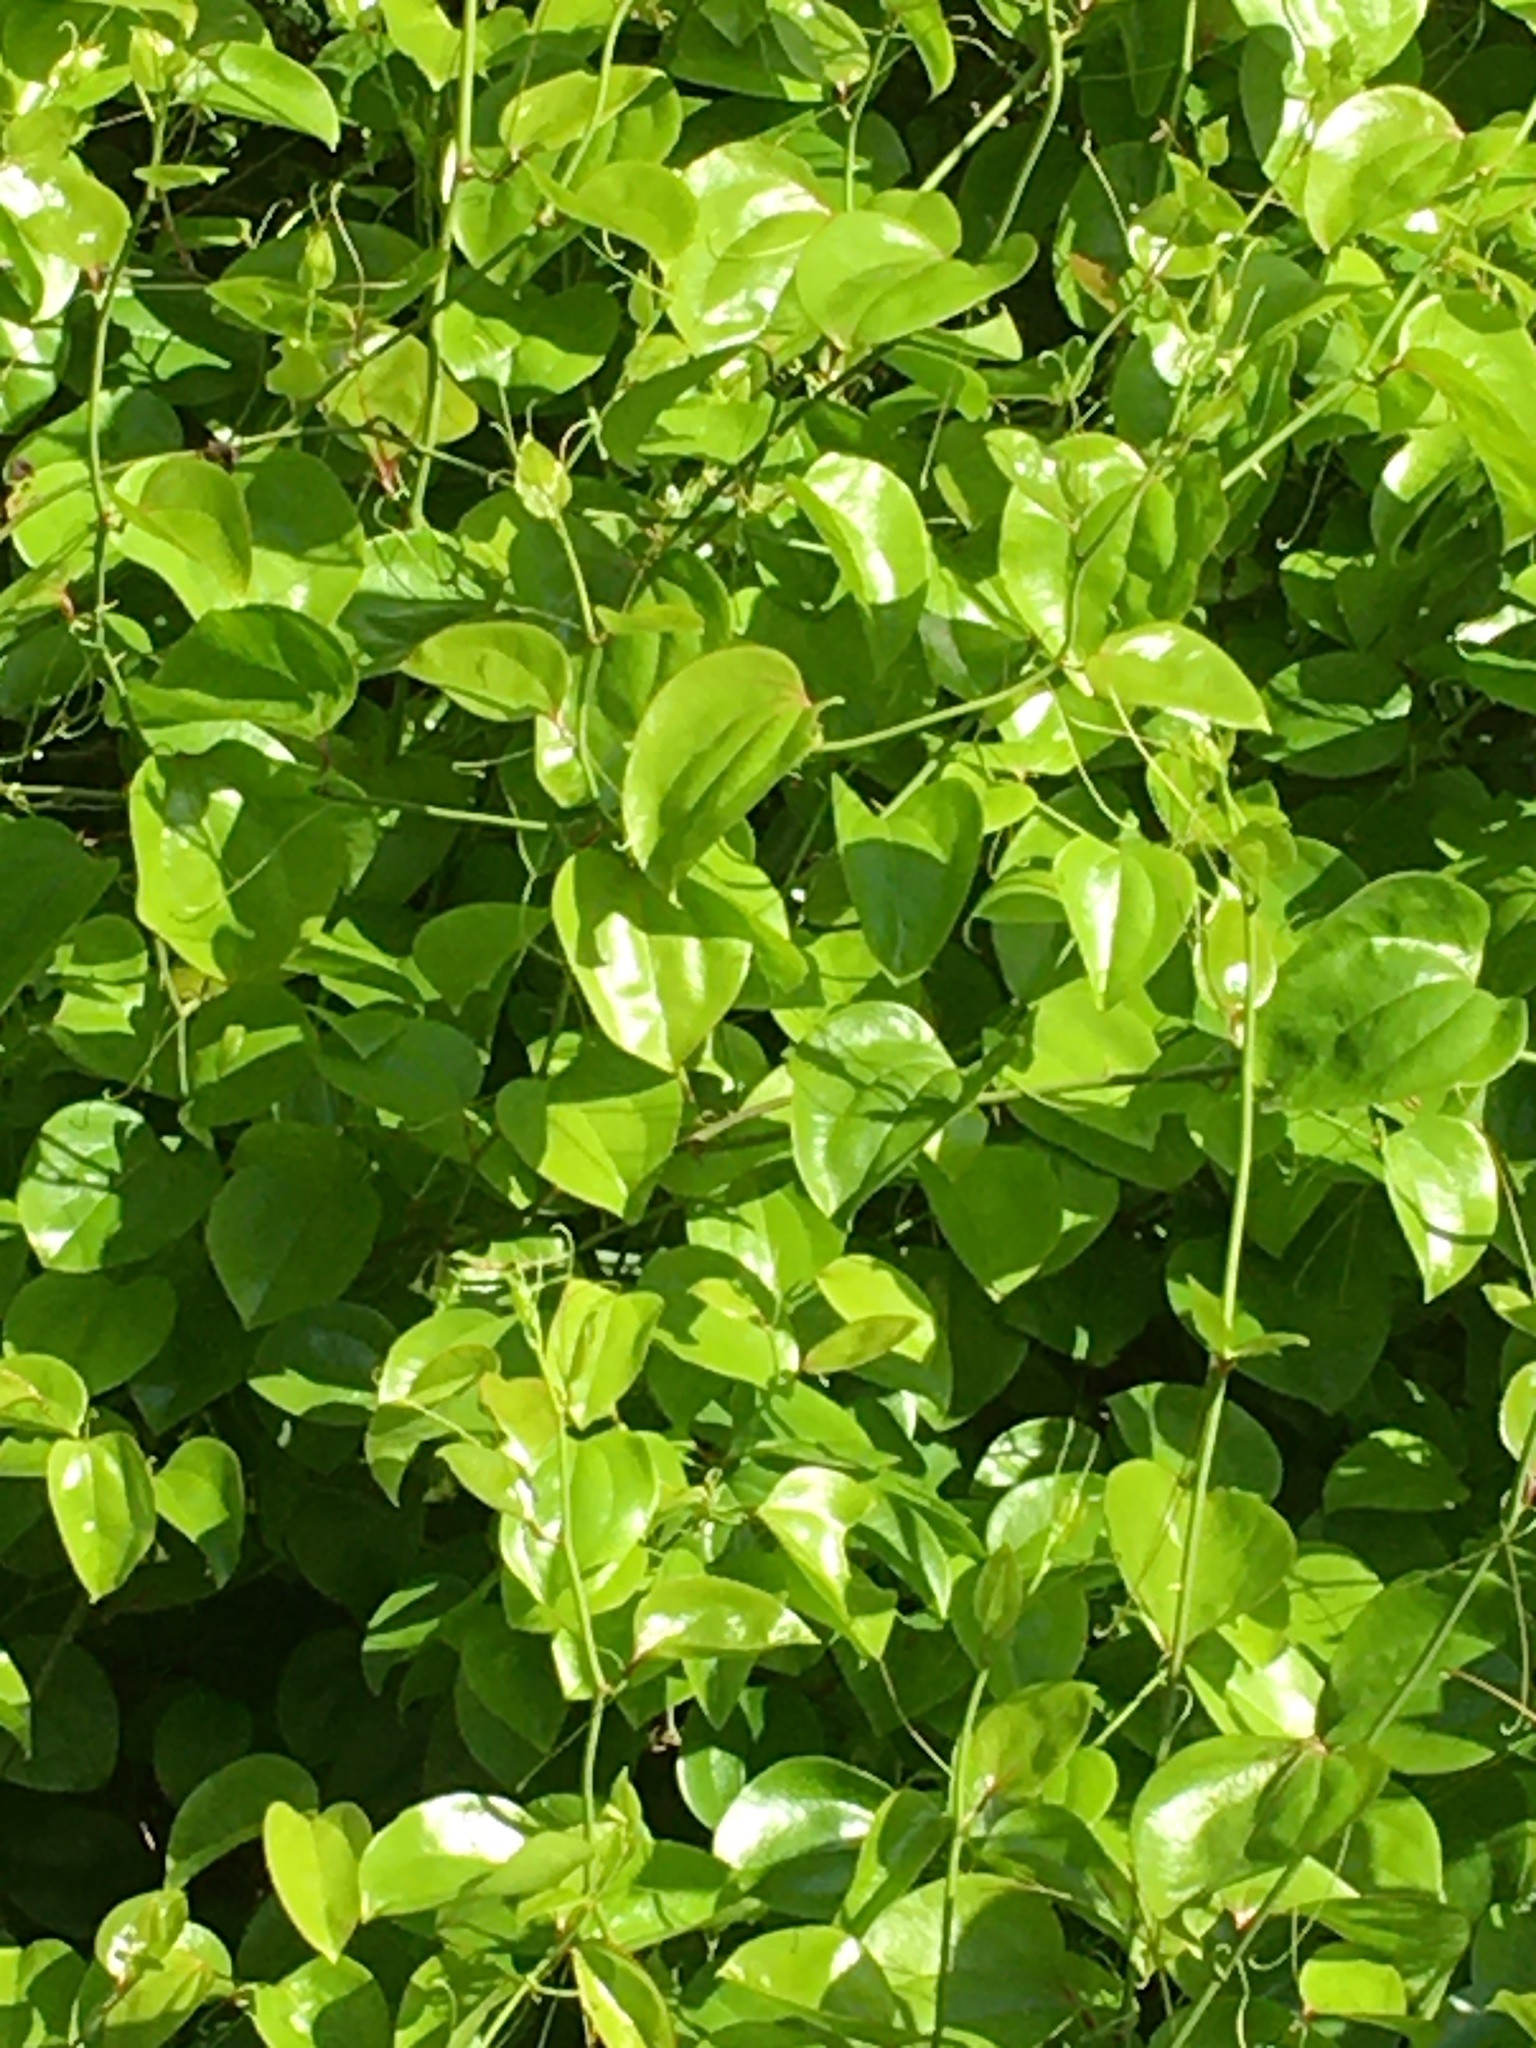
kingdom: Plantae
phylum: Tracheophyta
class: Liliopsida
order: Liliales
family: Smilacaceae
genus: Smilax
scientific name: Smilax rotundifolia
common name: Bullbriar
